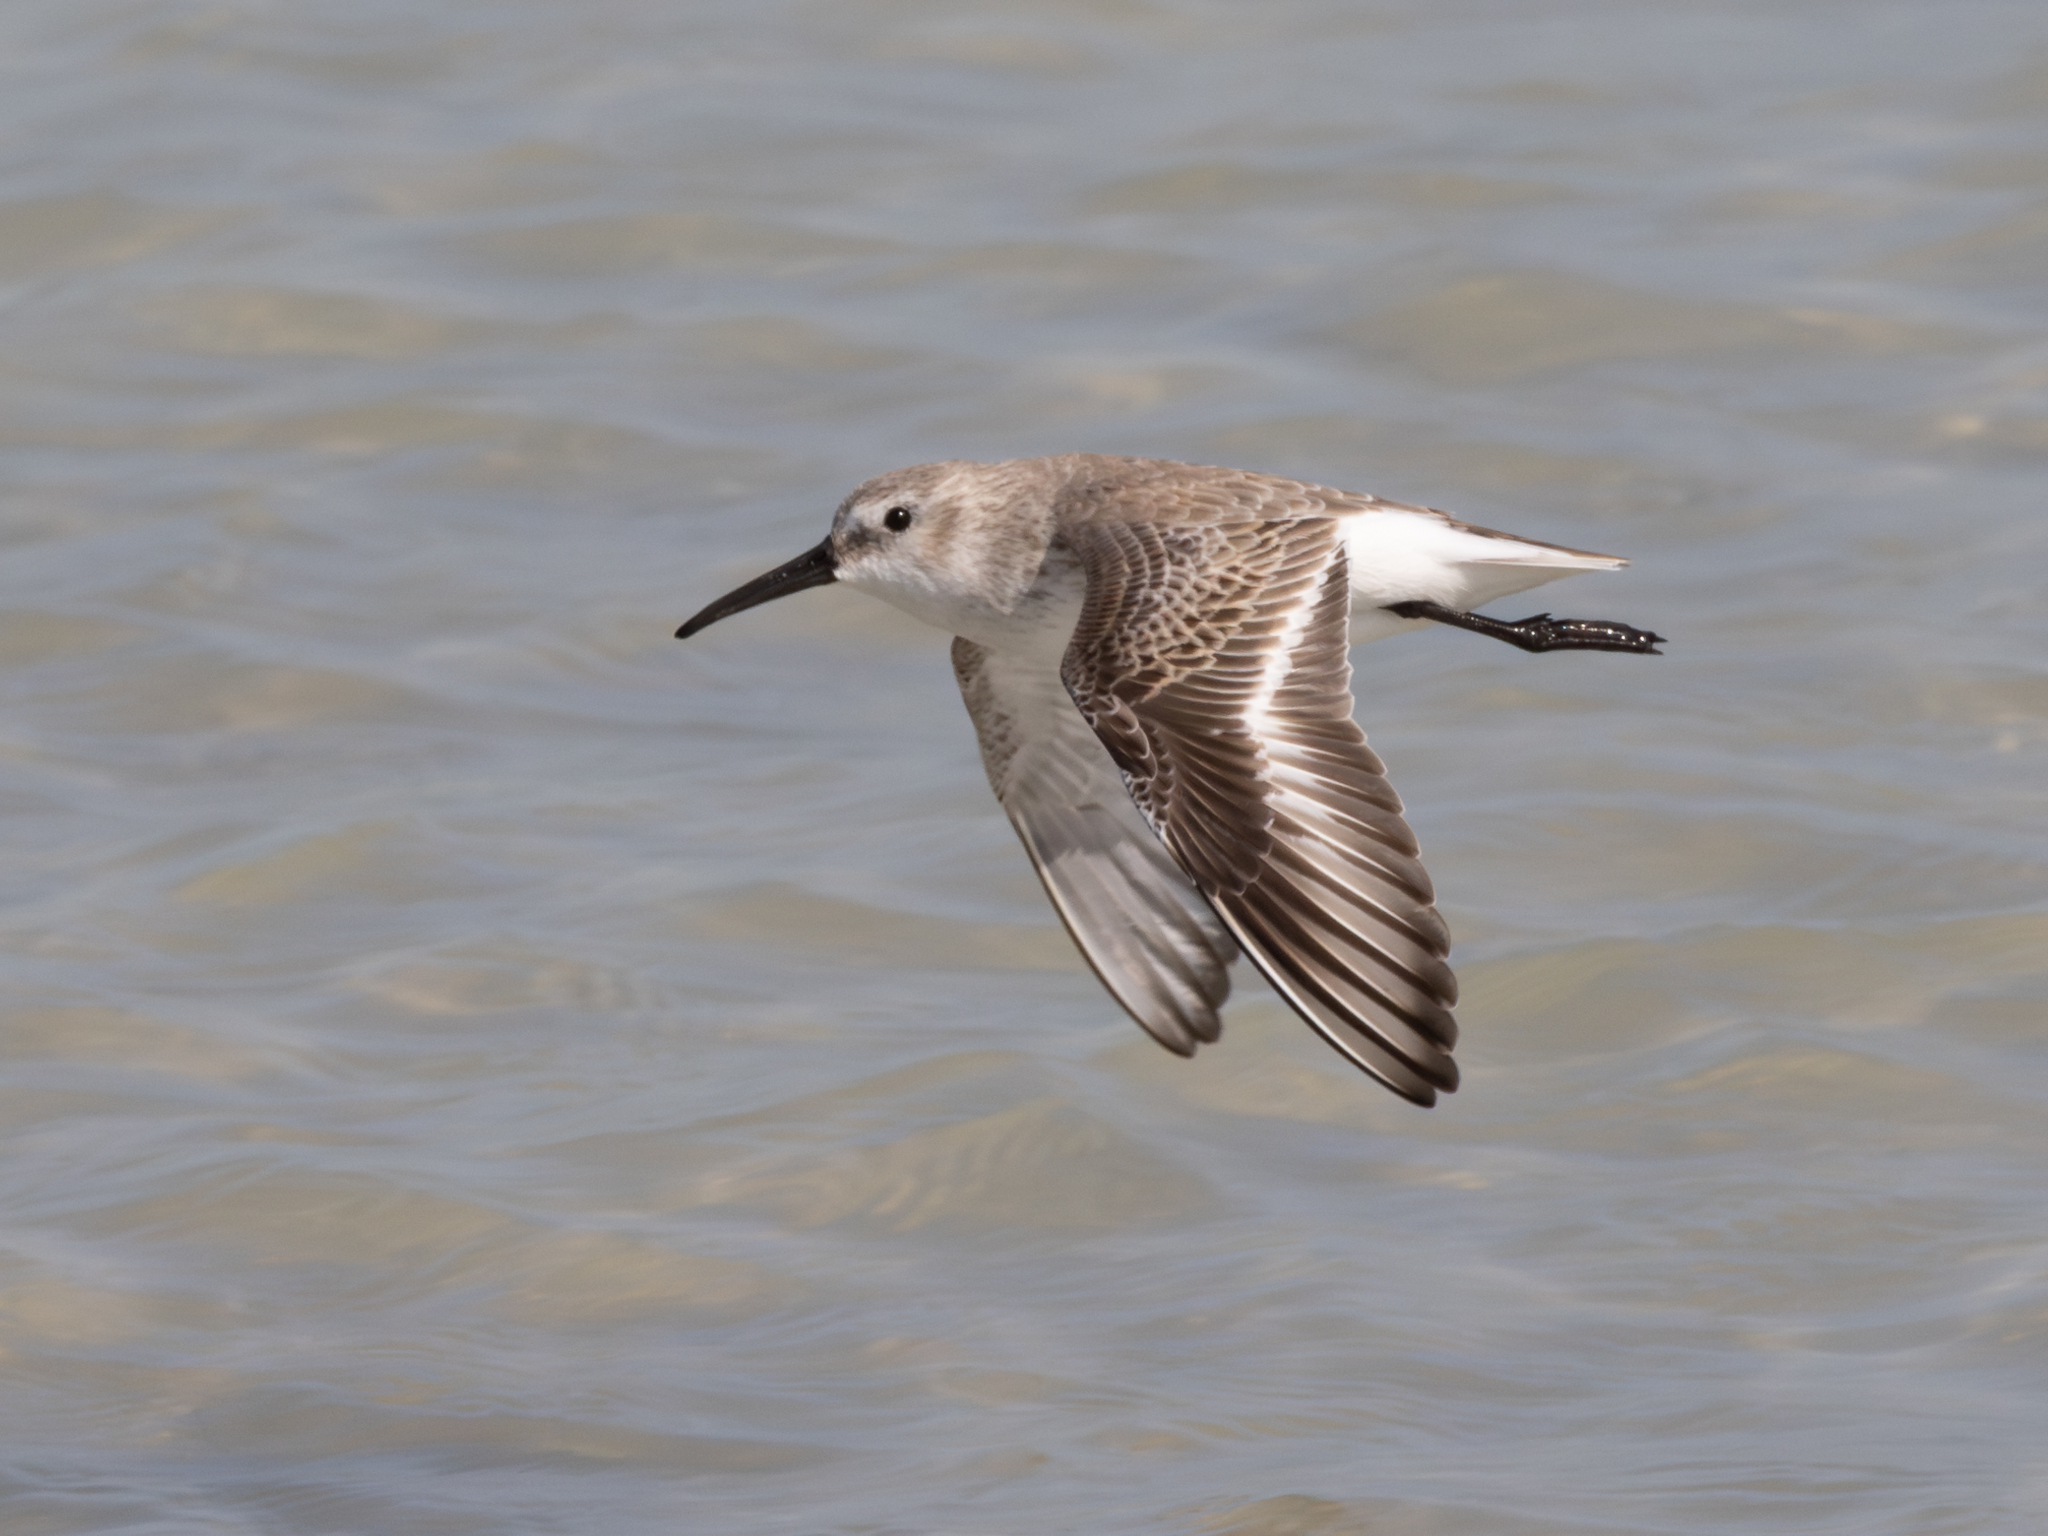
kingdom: Animalia
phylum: Chordata
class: Aves
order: Charadriiformes
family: Scolopacidae
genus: Calidris
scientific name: Calidris alpina
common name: Dunlin
